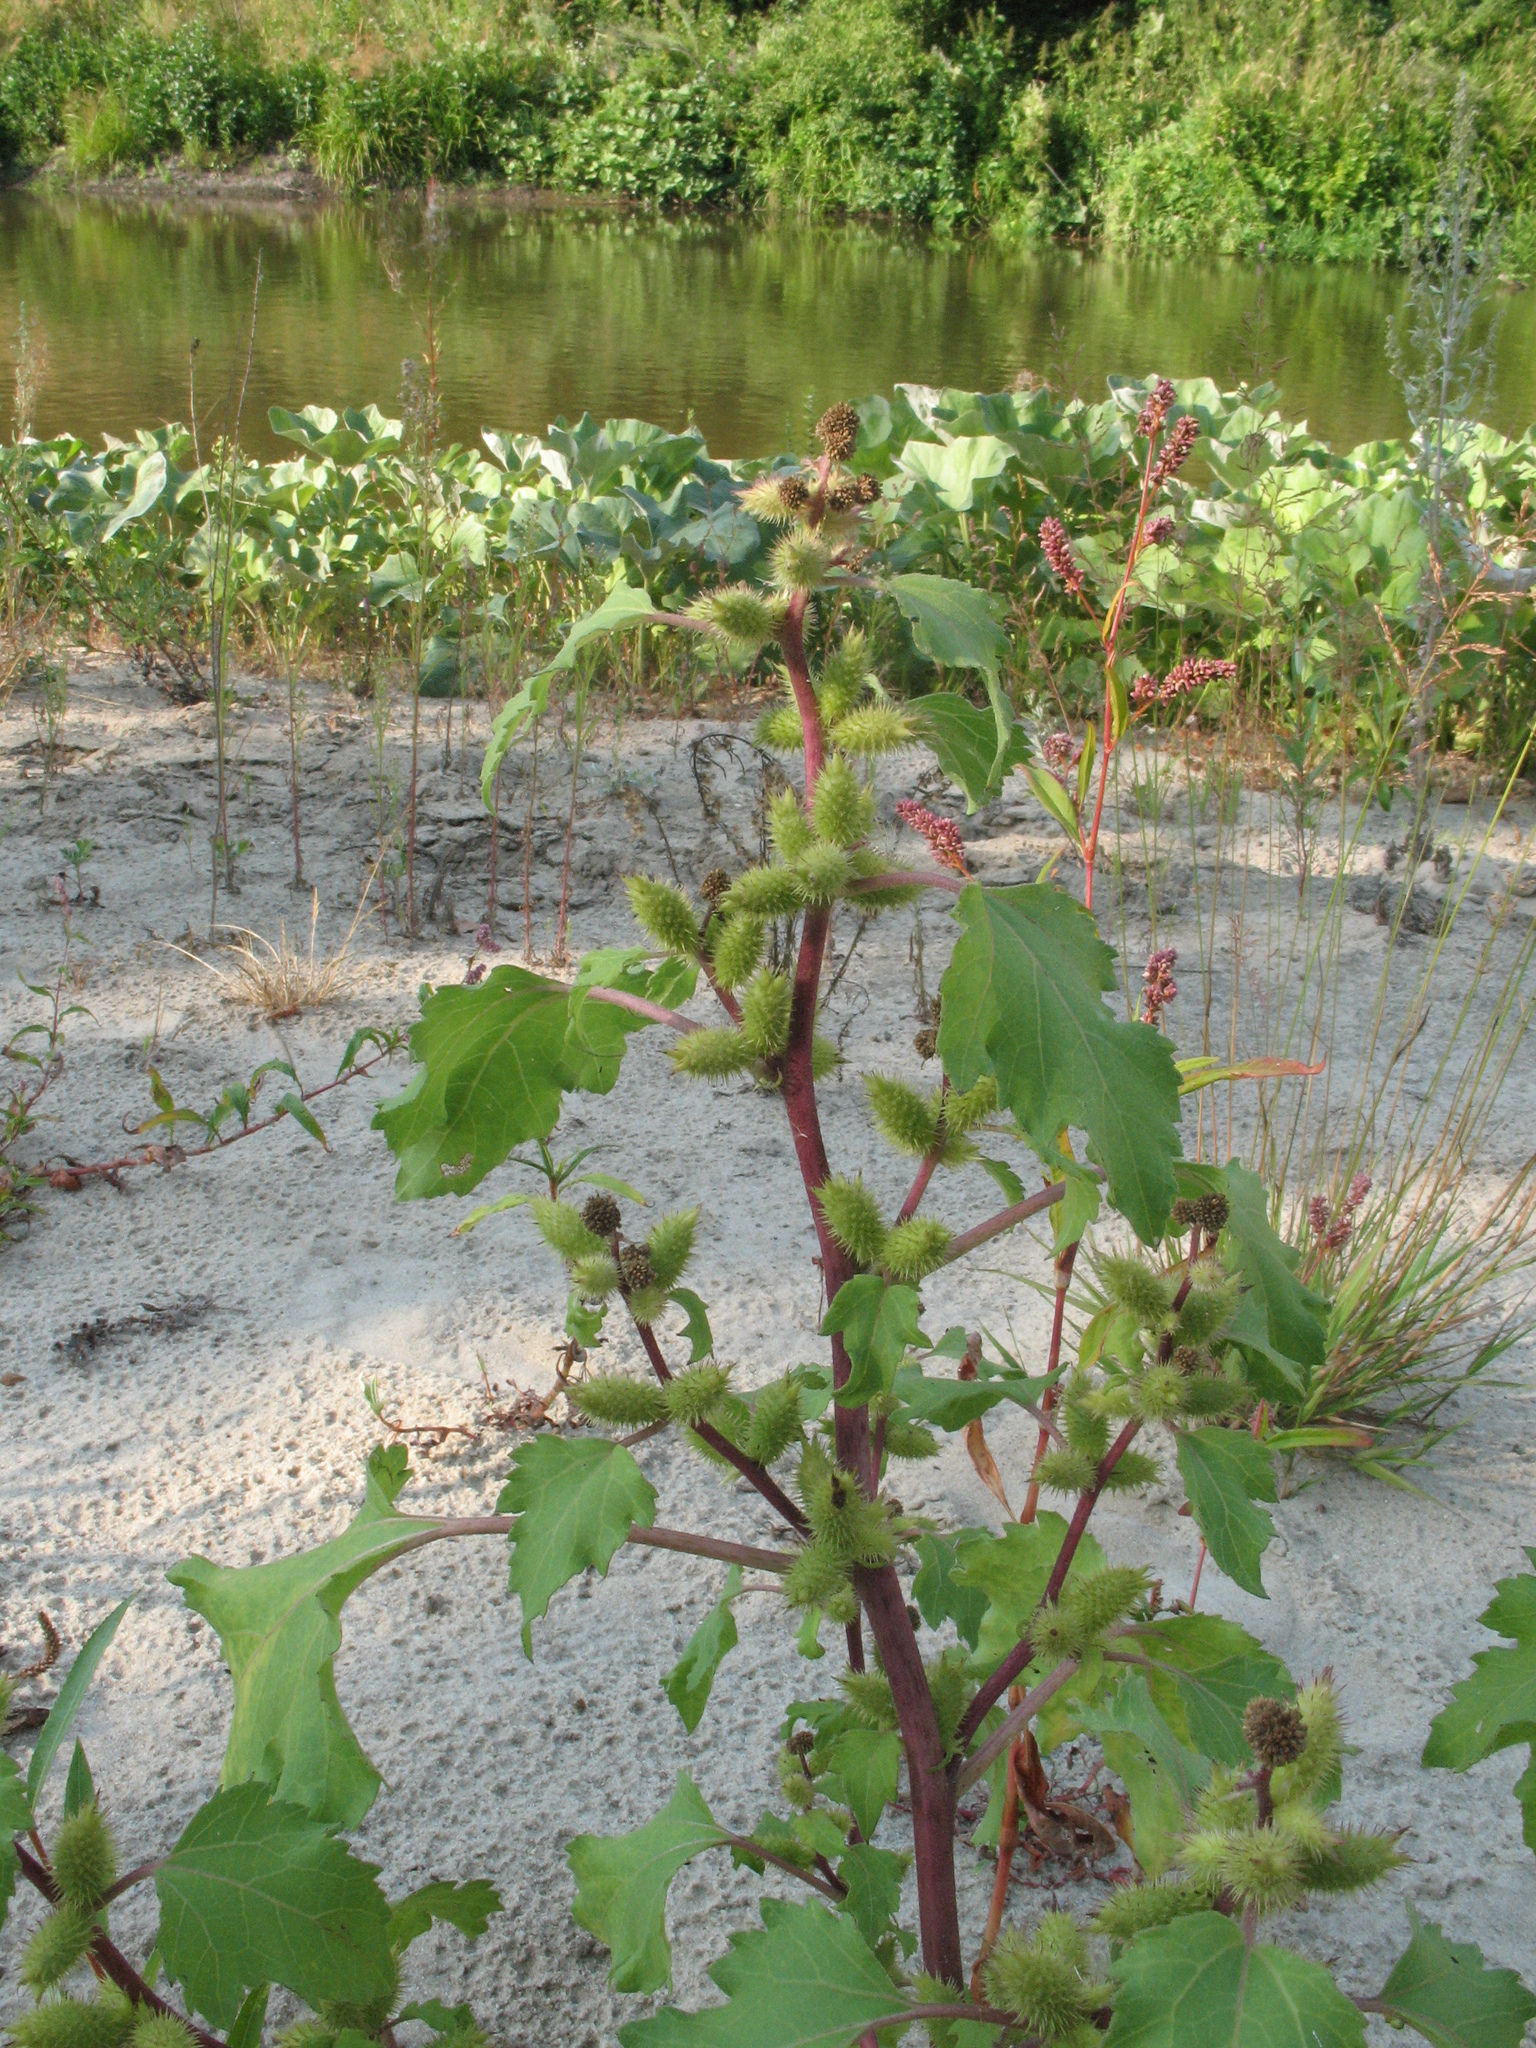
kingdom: Plantae
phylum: Tracheophyta
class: Magnoliopsida
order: Asterales
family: Asteraceae
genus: Xanthium
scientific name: Xanthium orientale
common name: Californian burr
